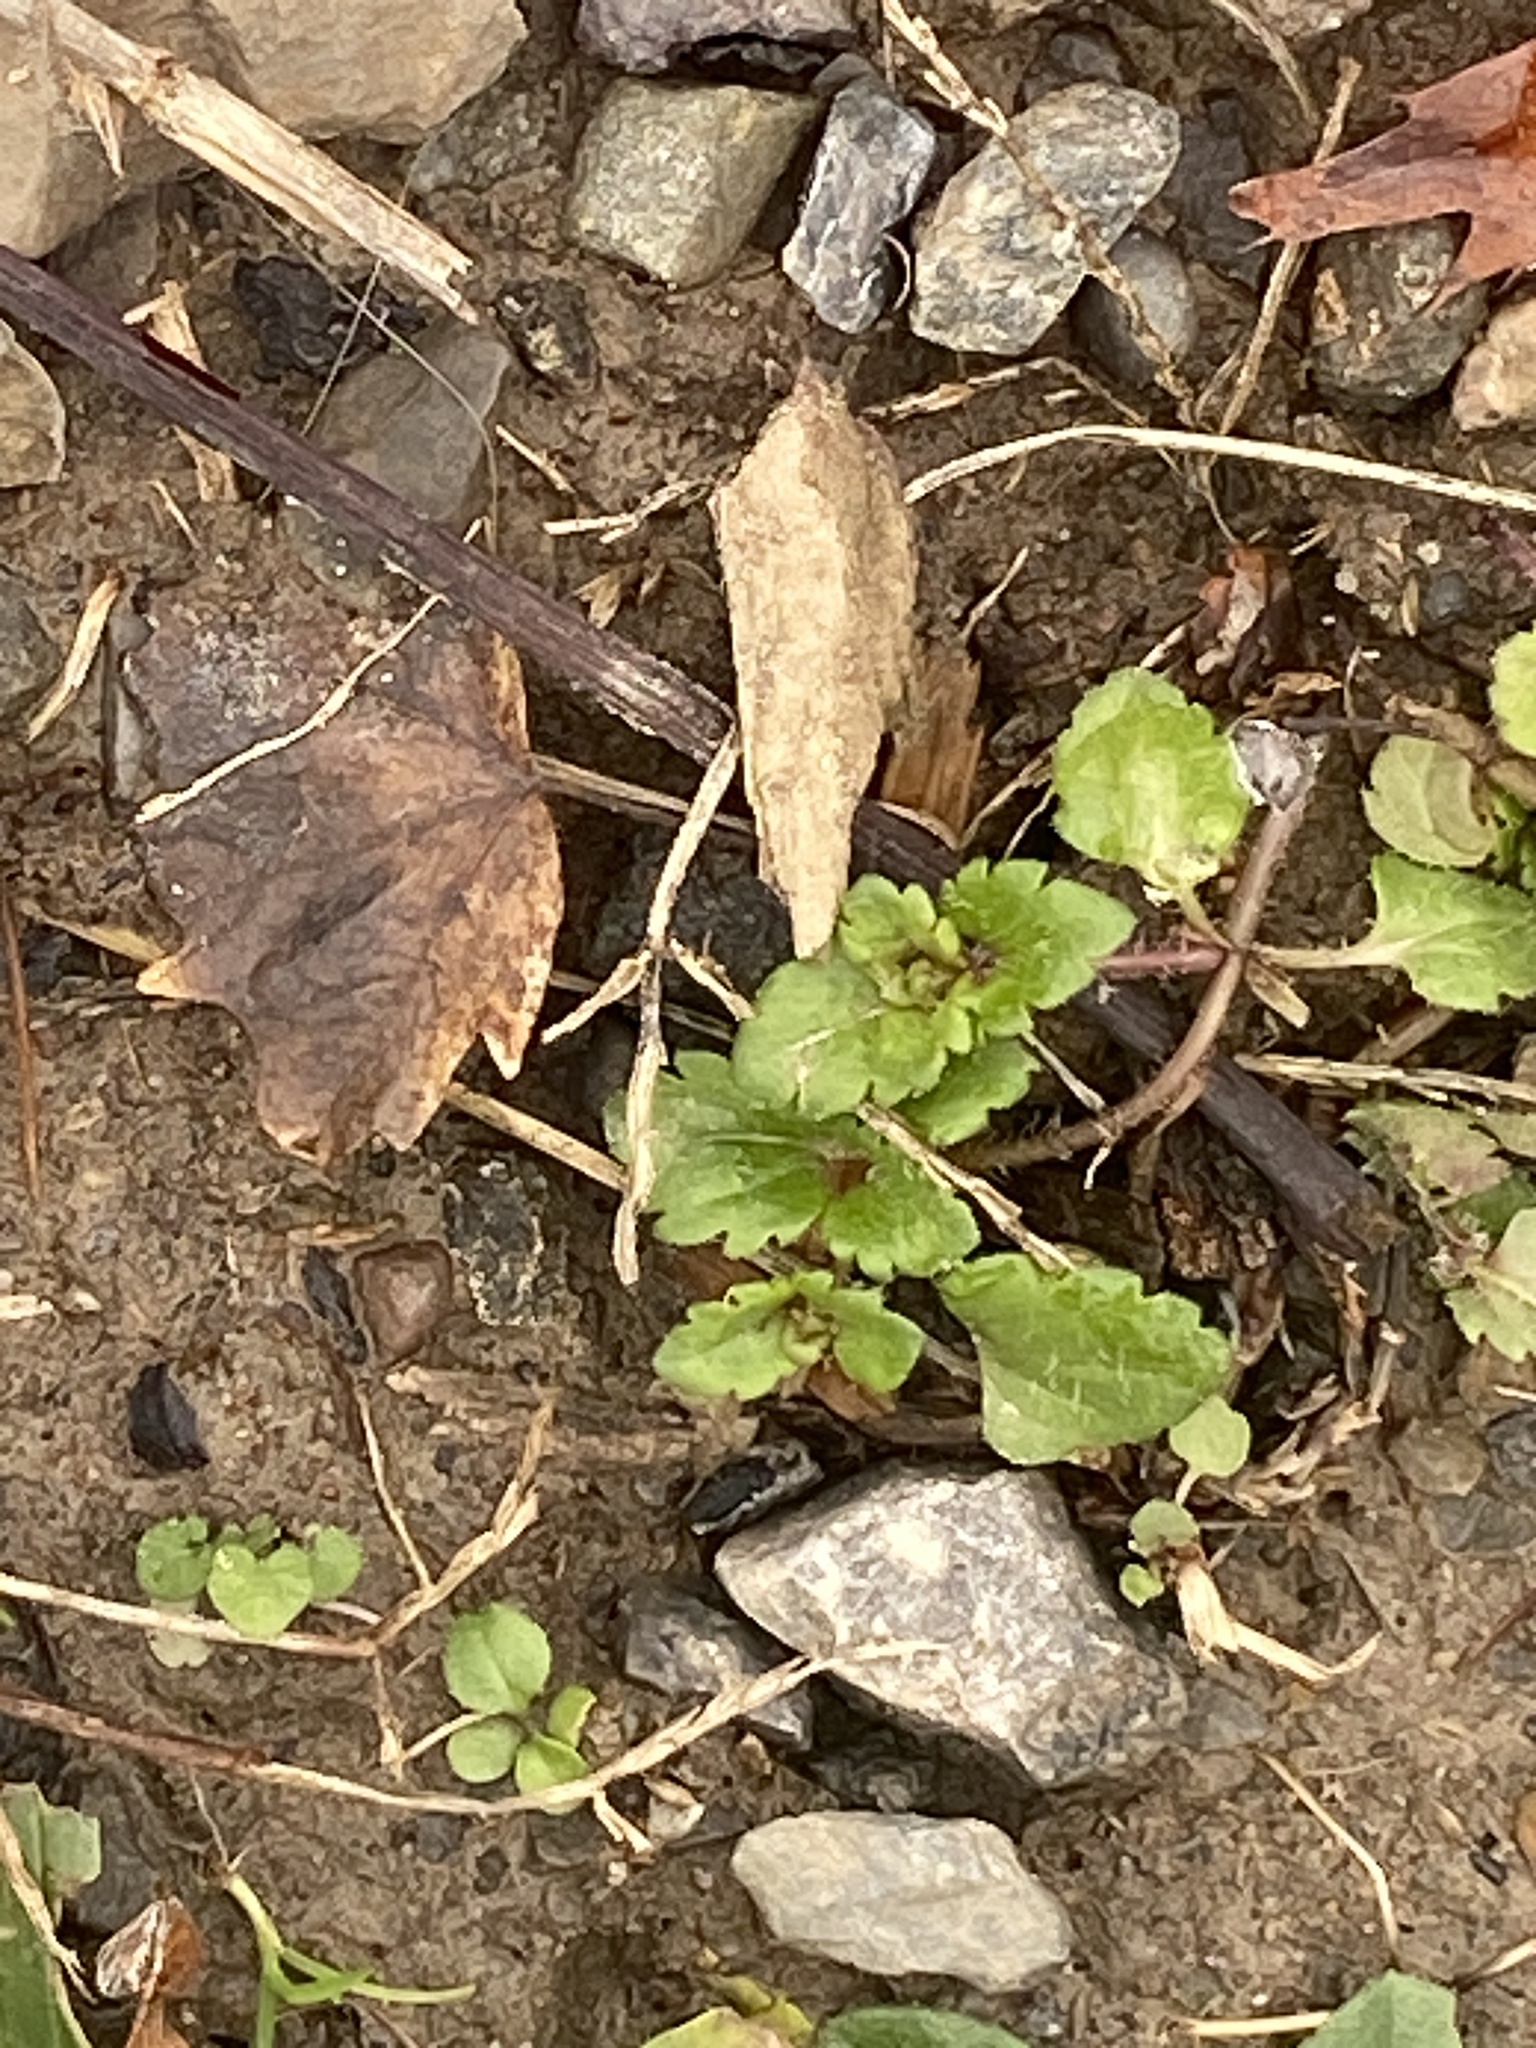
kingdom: Plantae
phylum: Tracheophyta
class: Magnoliopsida
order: Lamiales
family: Plantaginaceae
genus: Veronica
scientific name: Veronica persica
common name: Common field-speedwell
